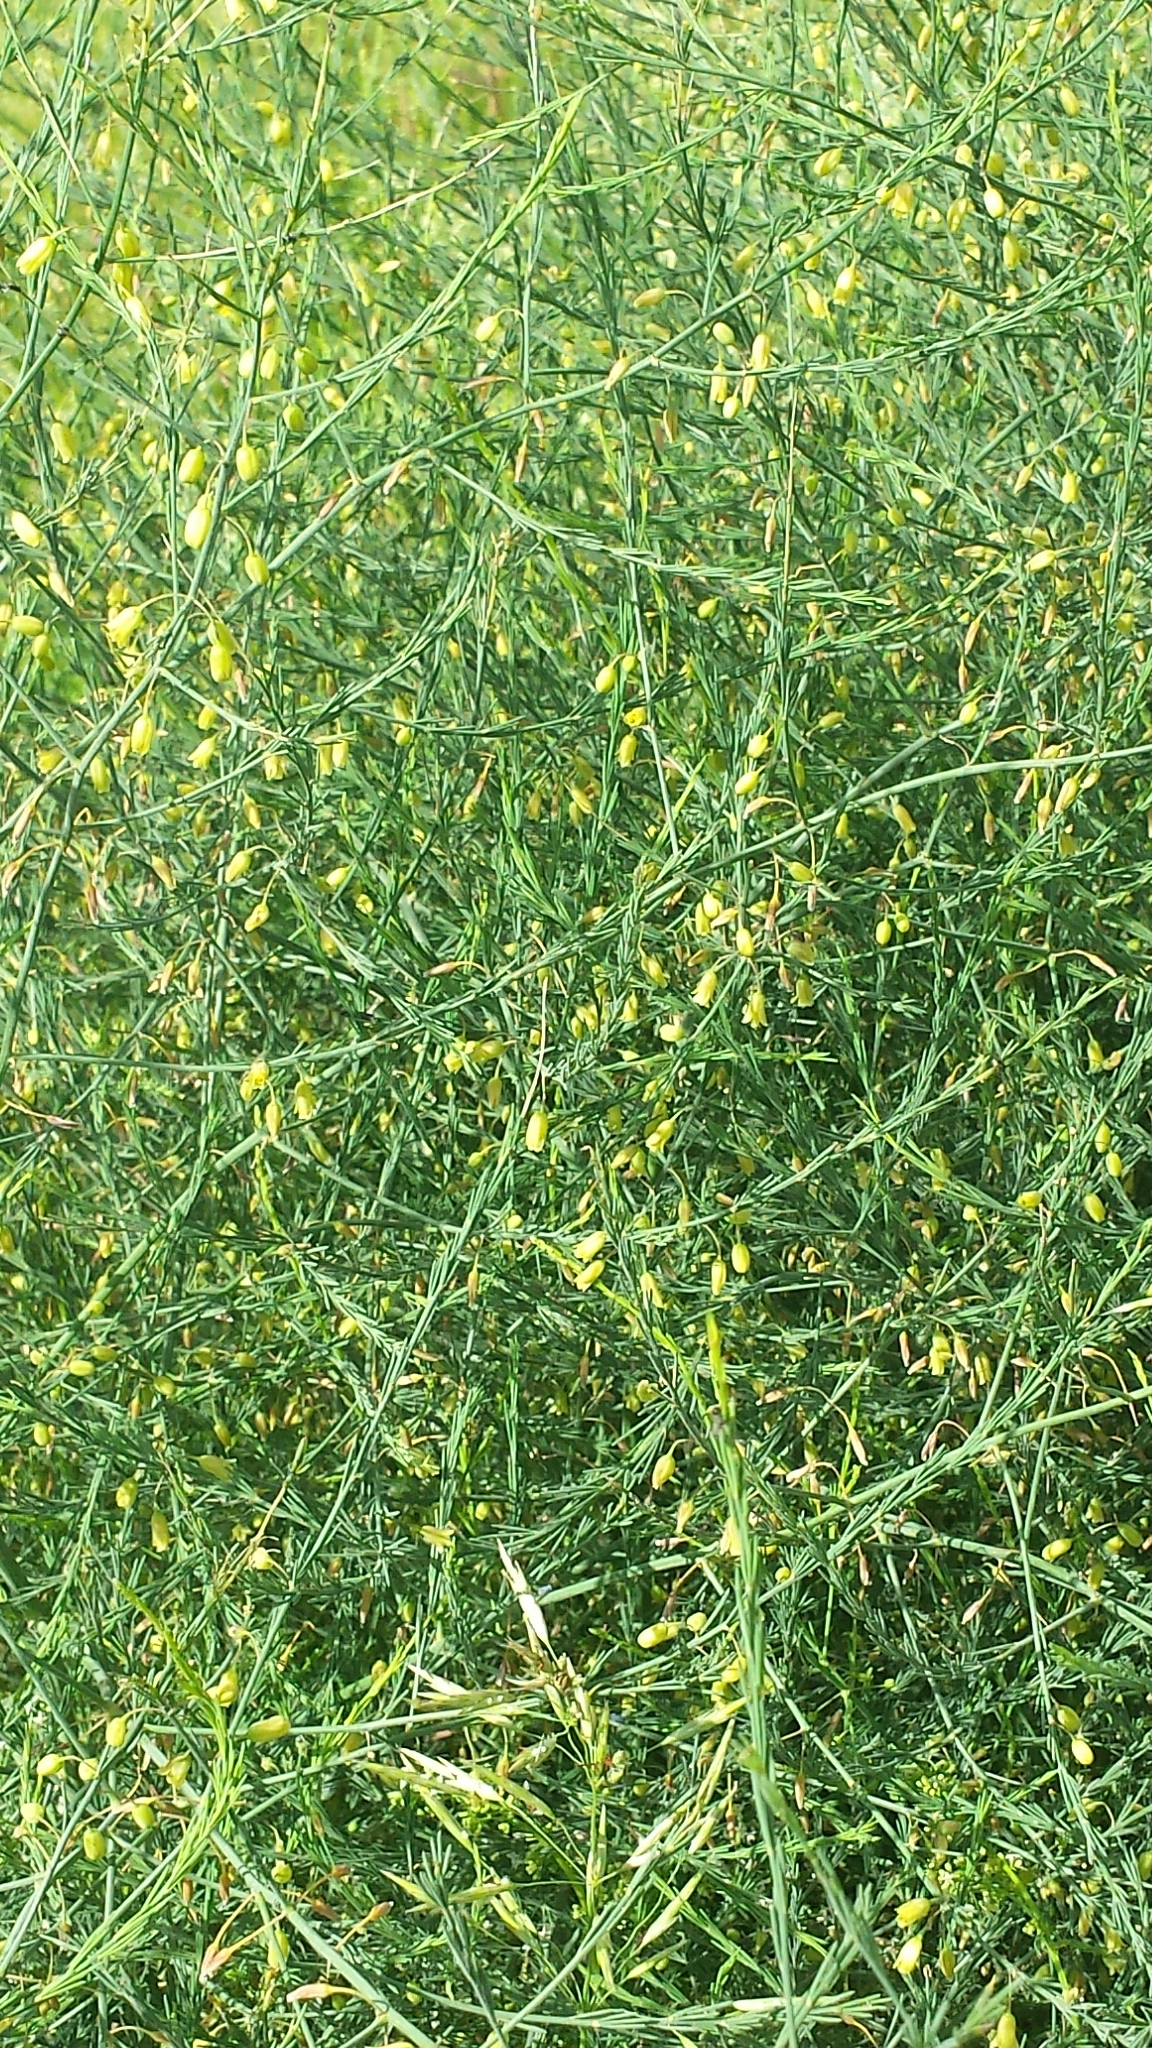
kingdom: Plantae
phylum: Tracheophyta
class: Liliopsida
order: Asparagales
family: Asparagaceae
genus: Asparagus
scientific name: Asparagus officinalis
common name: Garden asparagus
